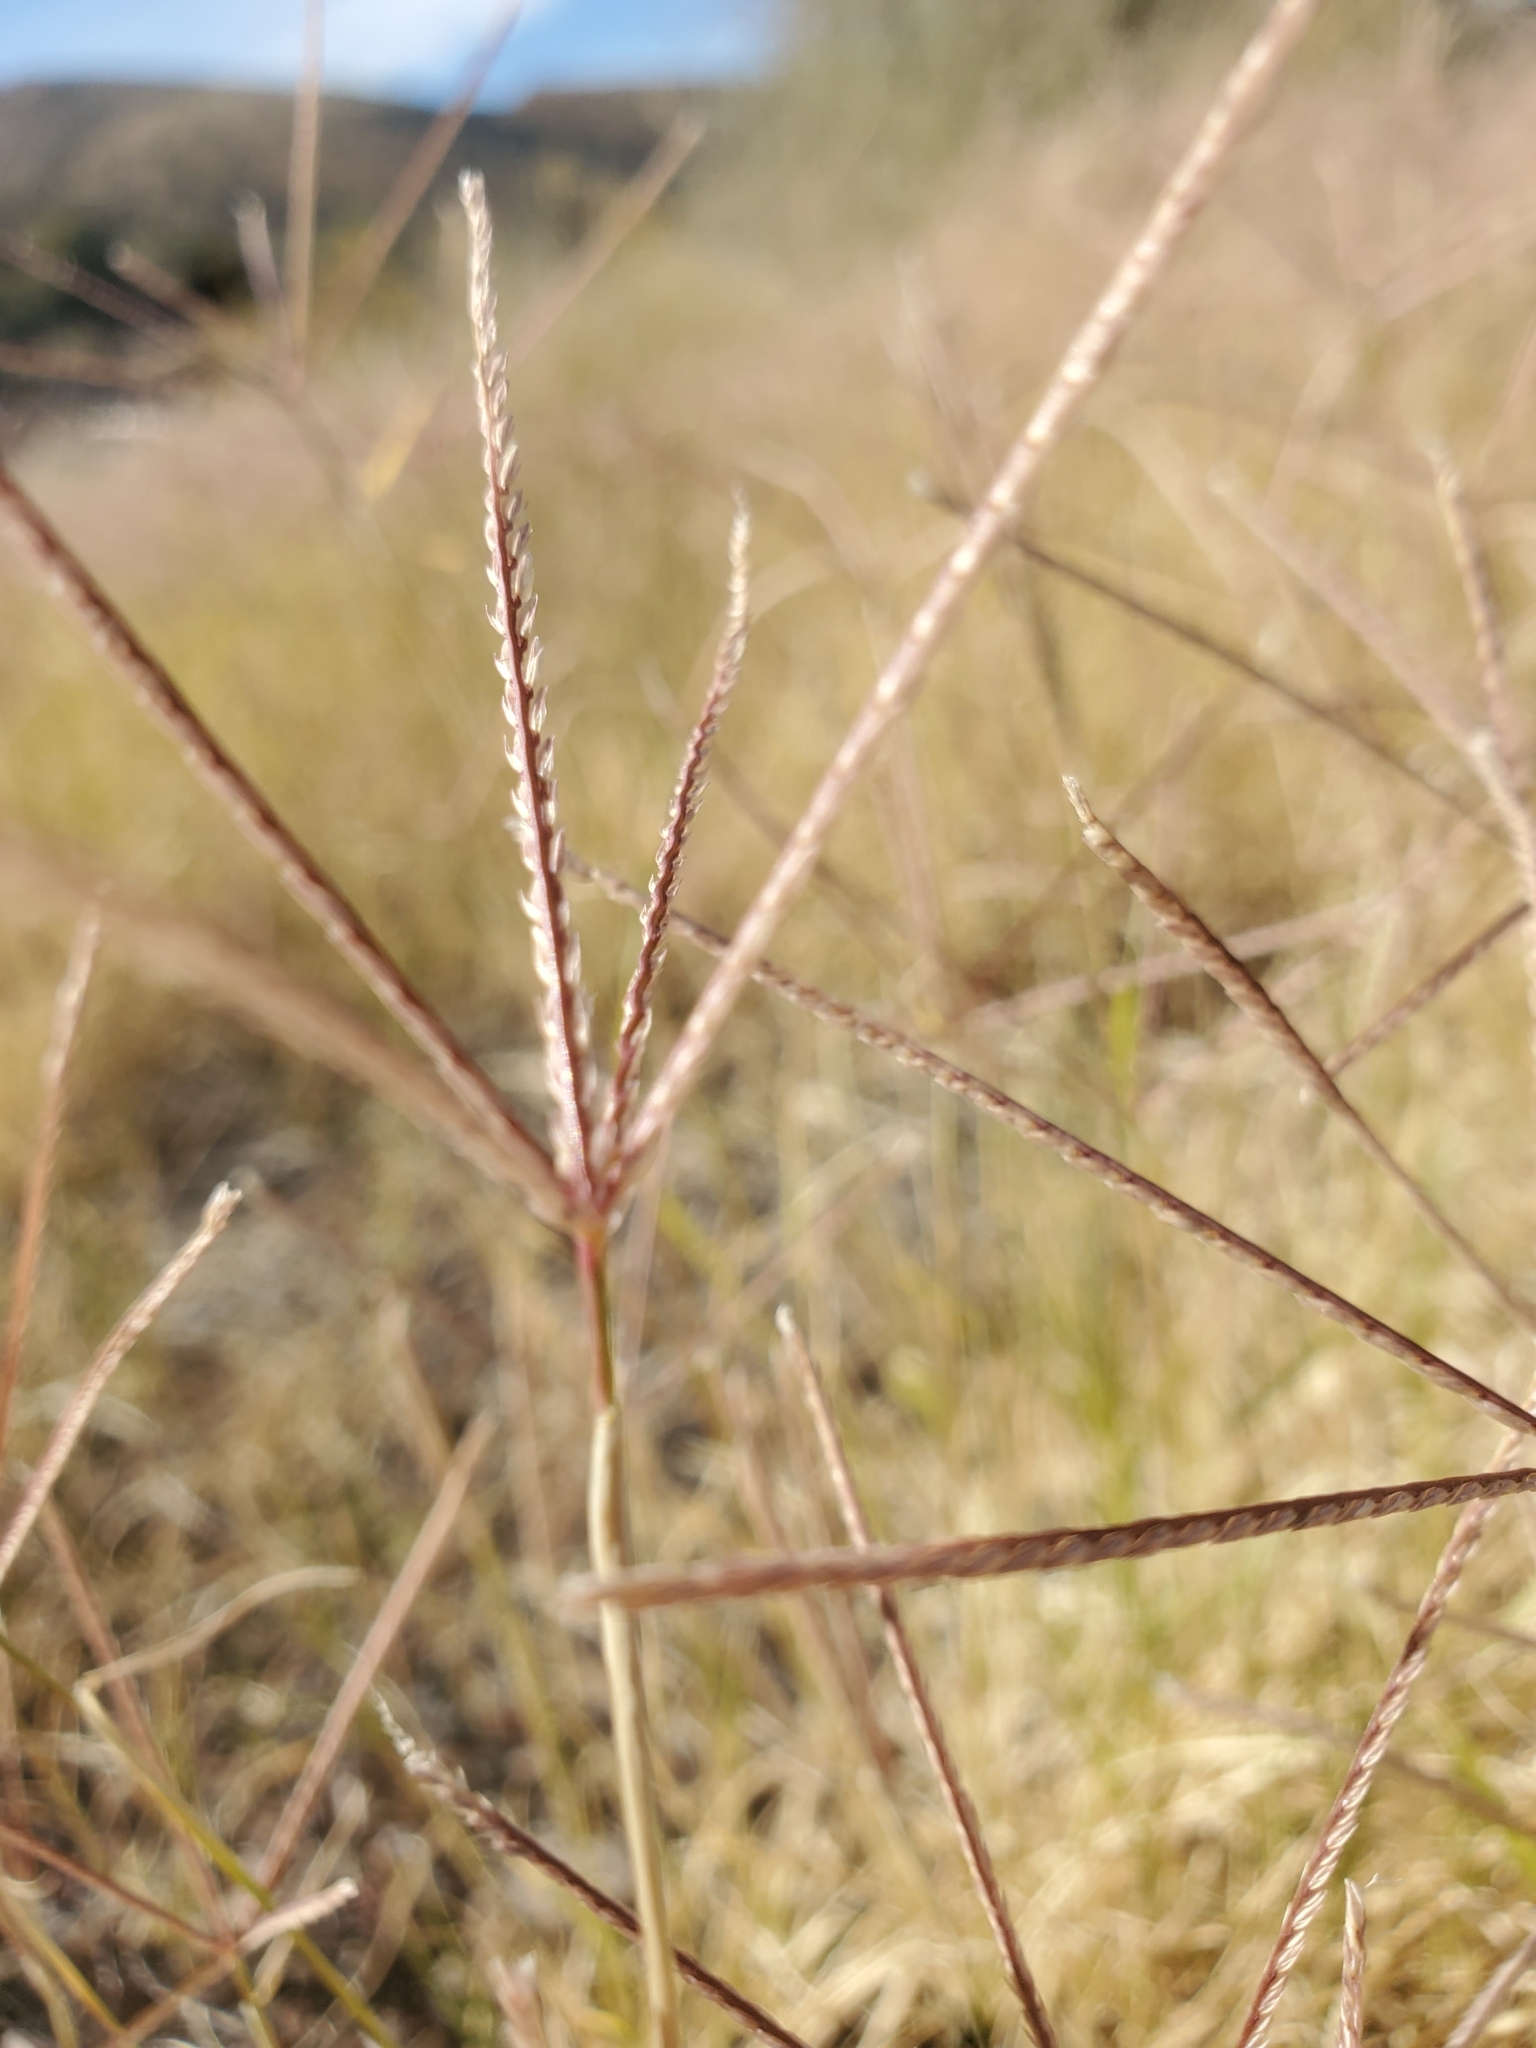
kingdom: Plantae
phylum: Tracheophyta
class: Liliopsida
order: Poales
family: Poaceae
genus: Cynodon
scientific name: Cynodon dactylon
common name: Bermuda grass
